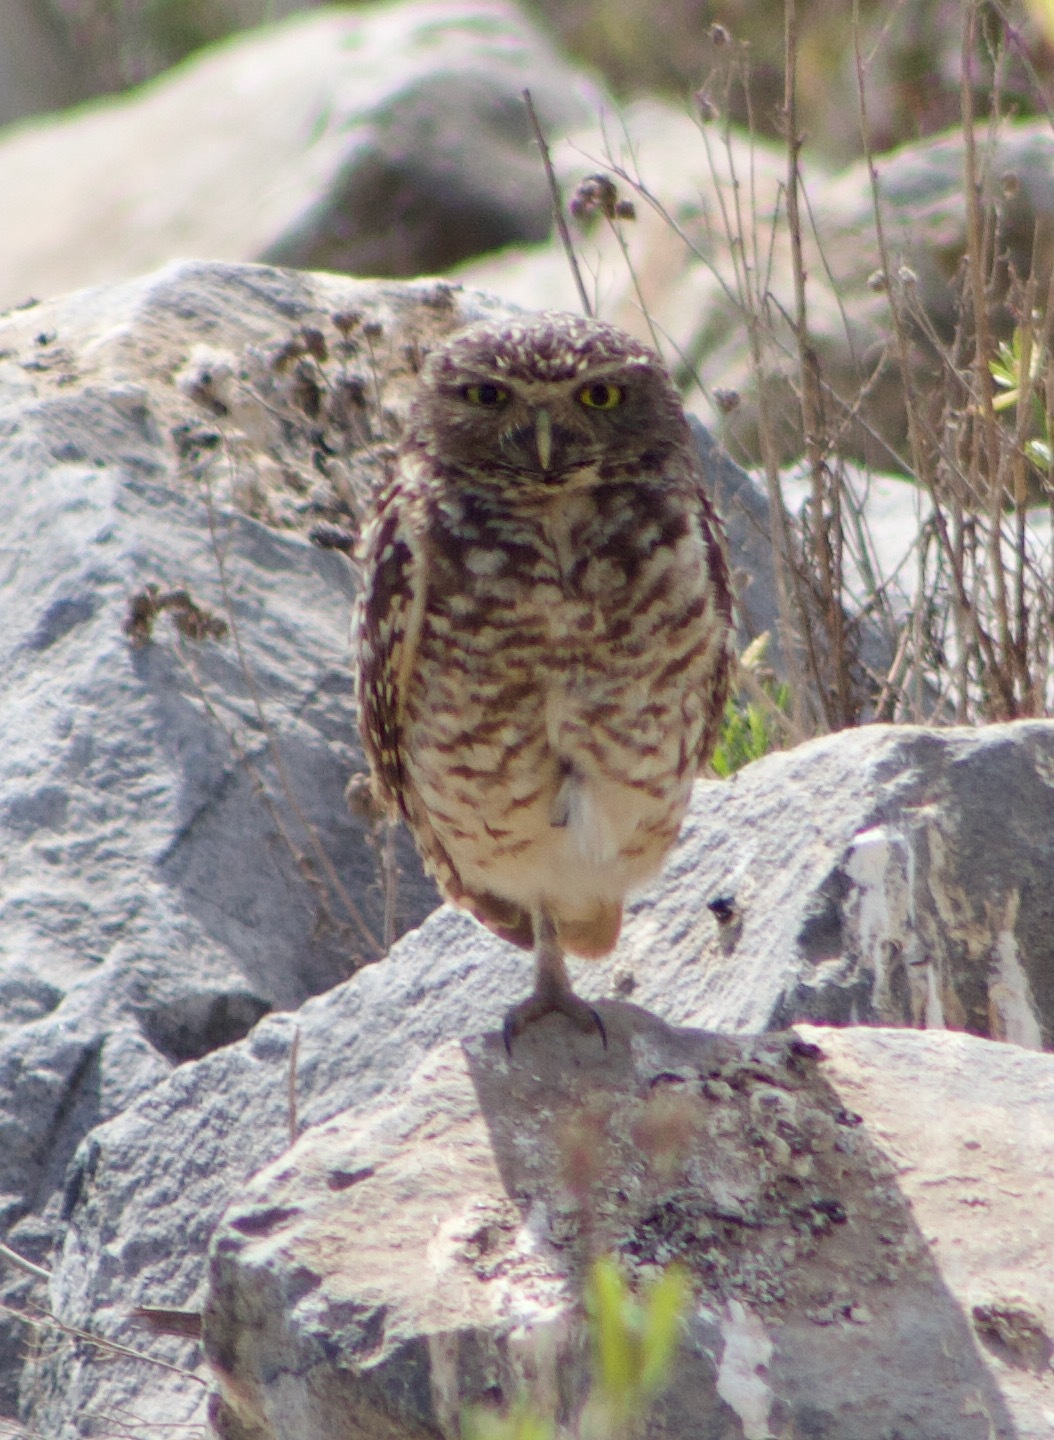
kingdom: Animalia
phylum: Chordata
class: Aves
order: Strigiformes
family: Strigidae
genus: Athene
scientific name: Athene cunicularia
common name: Burrowing owl
